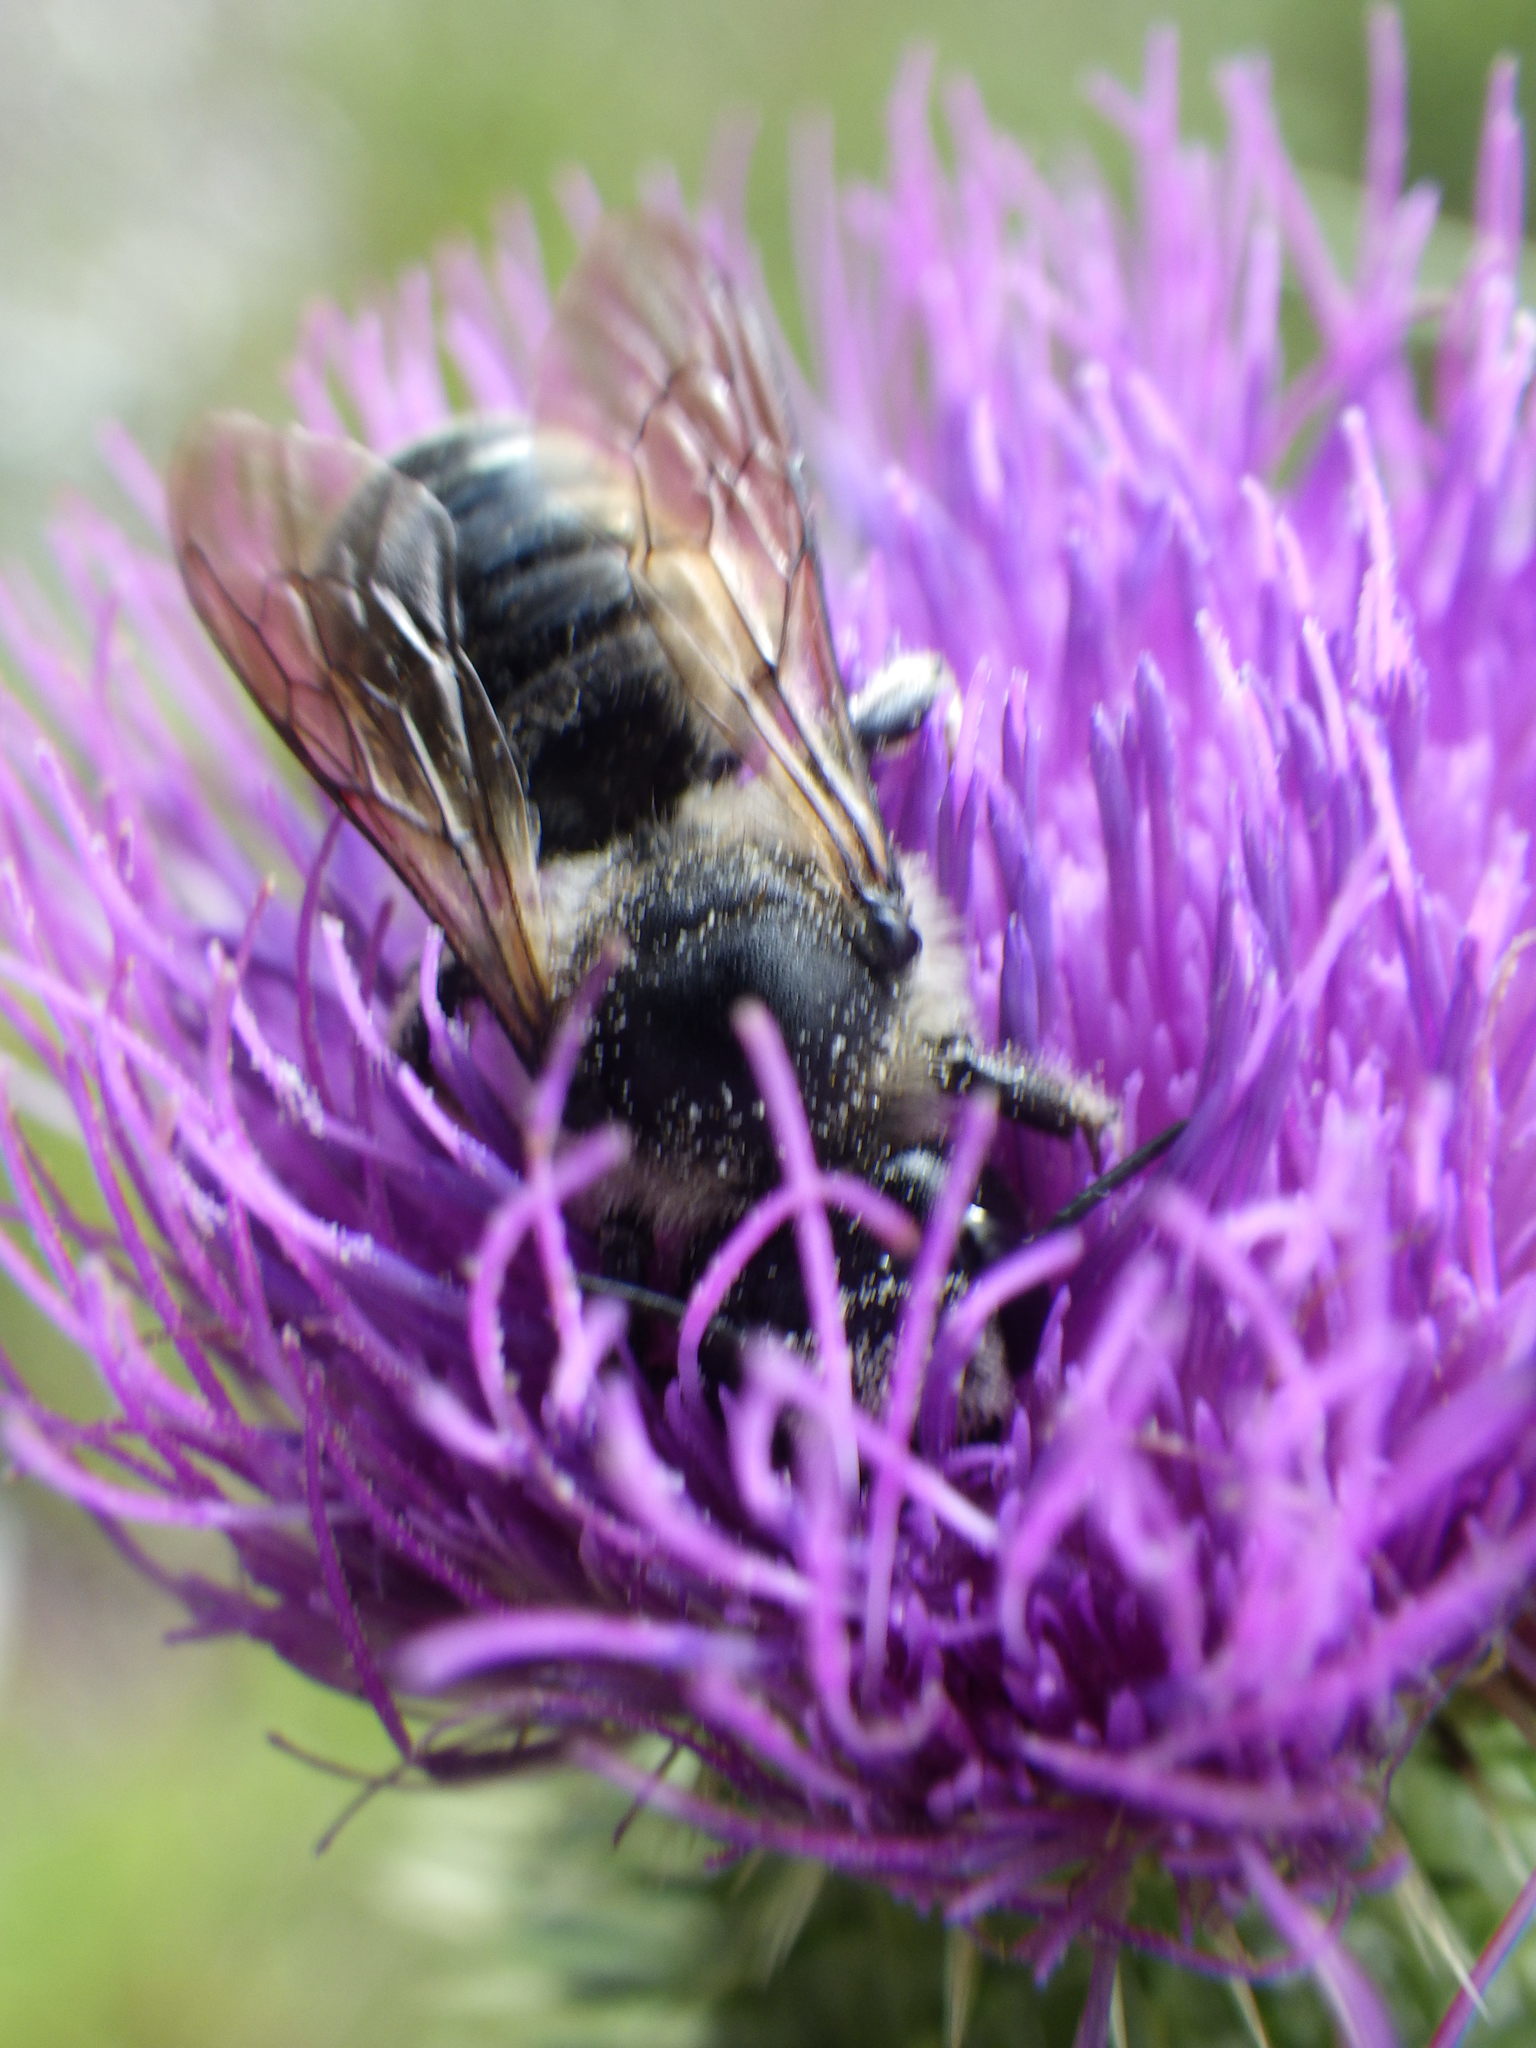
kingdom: Animalia
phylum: Arthropoda
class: Insecta
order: Hymenoptera
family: Megachilidae
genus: Megachile
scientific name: Megachile inermis
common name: Unarmed leafcutter bee
